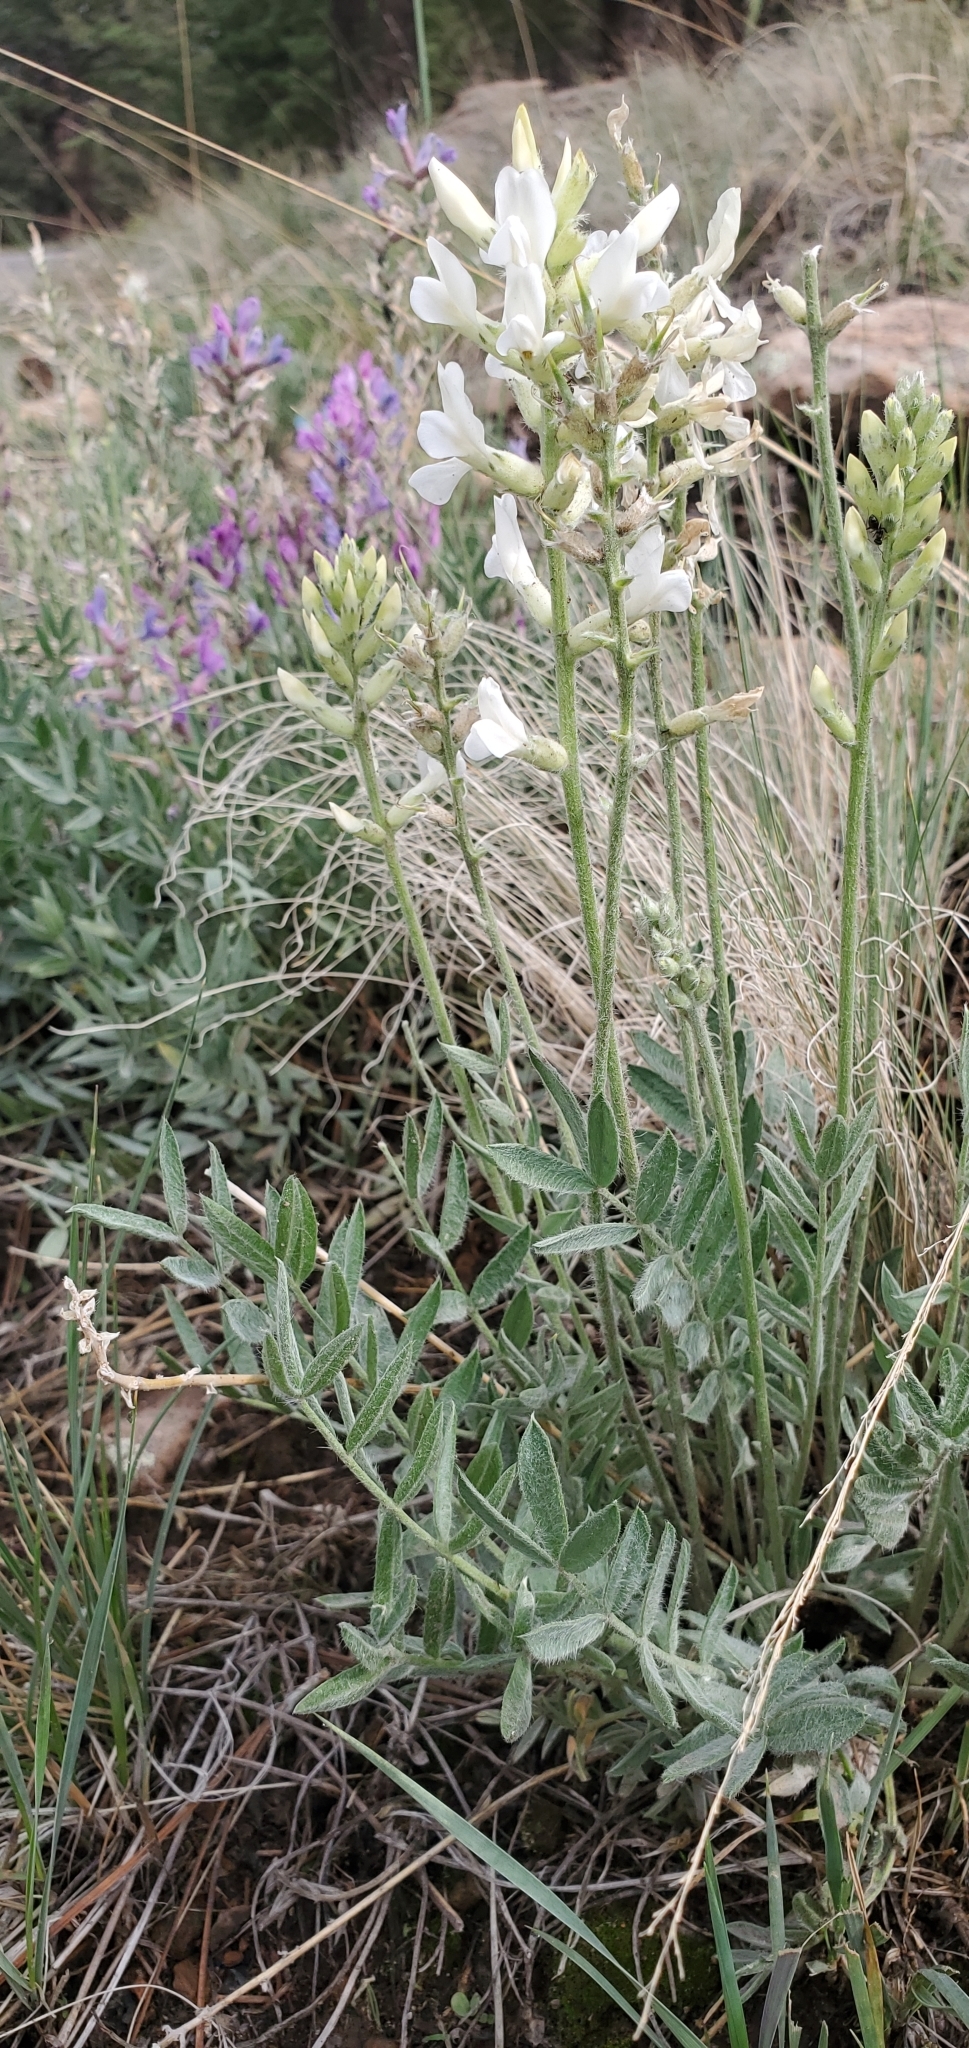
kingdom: Plantae
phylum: Tracheophyta
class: Magnoliopsida
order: Fabales
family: Fabaceae
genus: Oxytropis
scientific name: Oxytropis lambertii
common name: Purple locoweed
